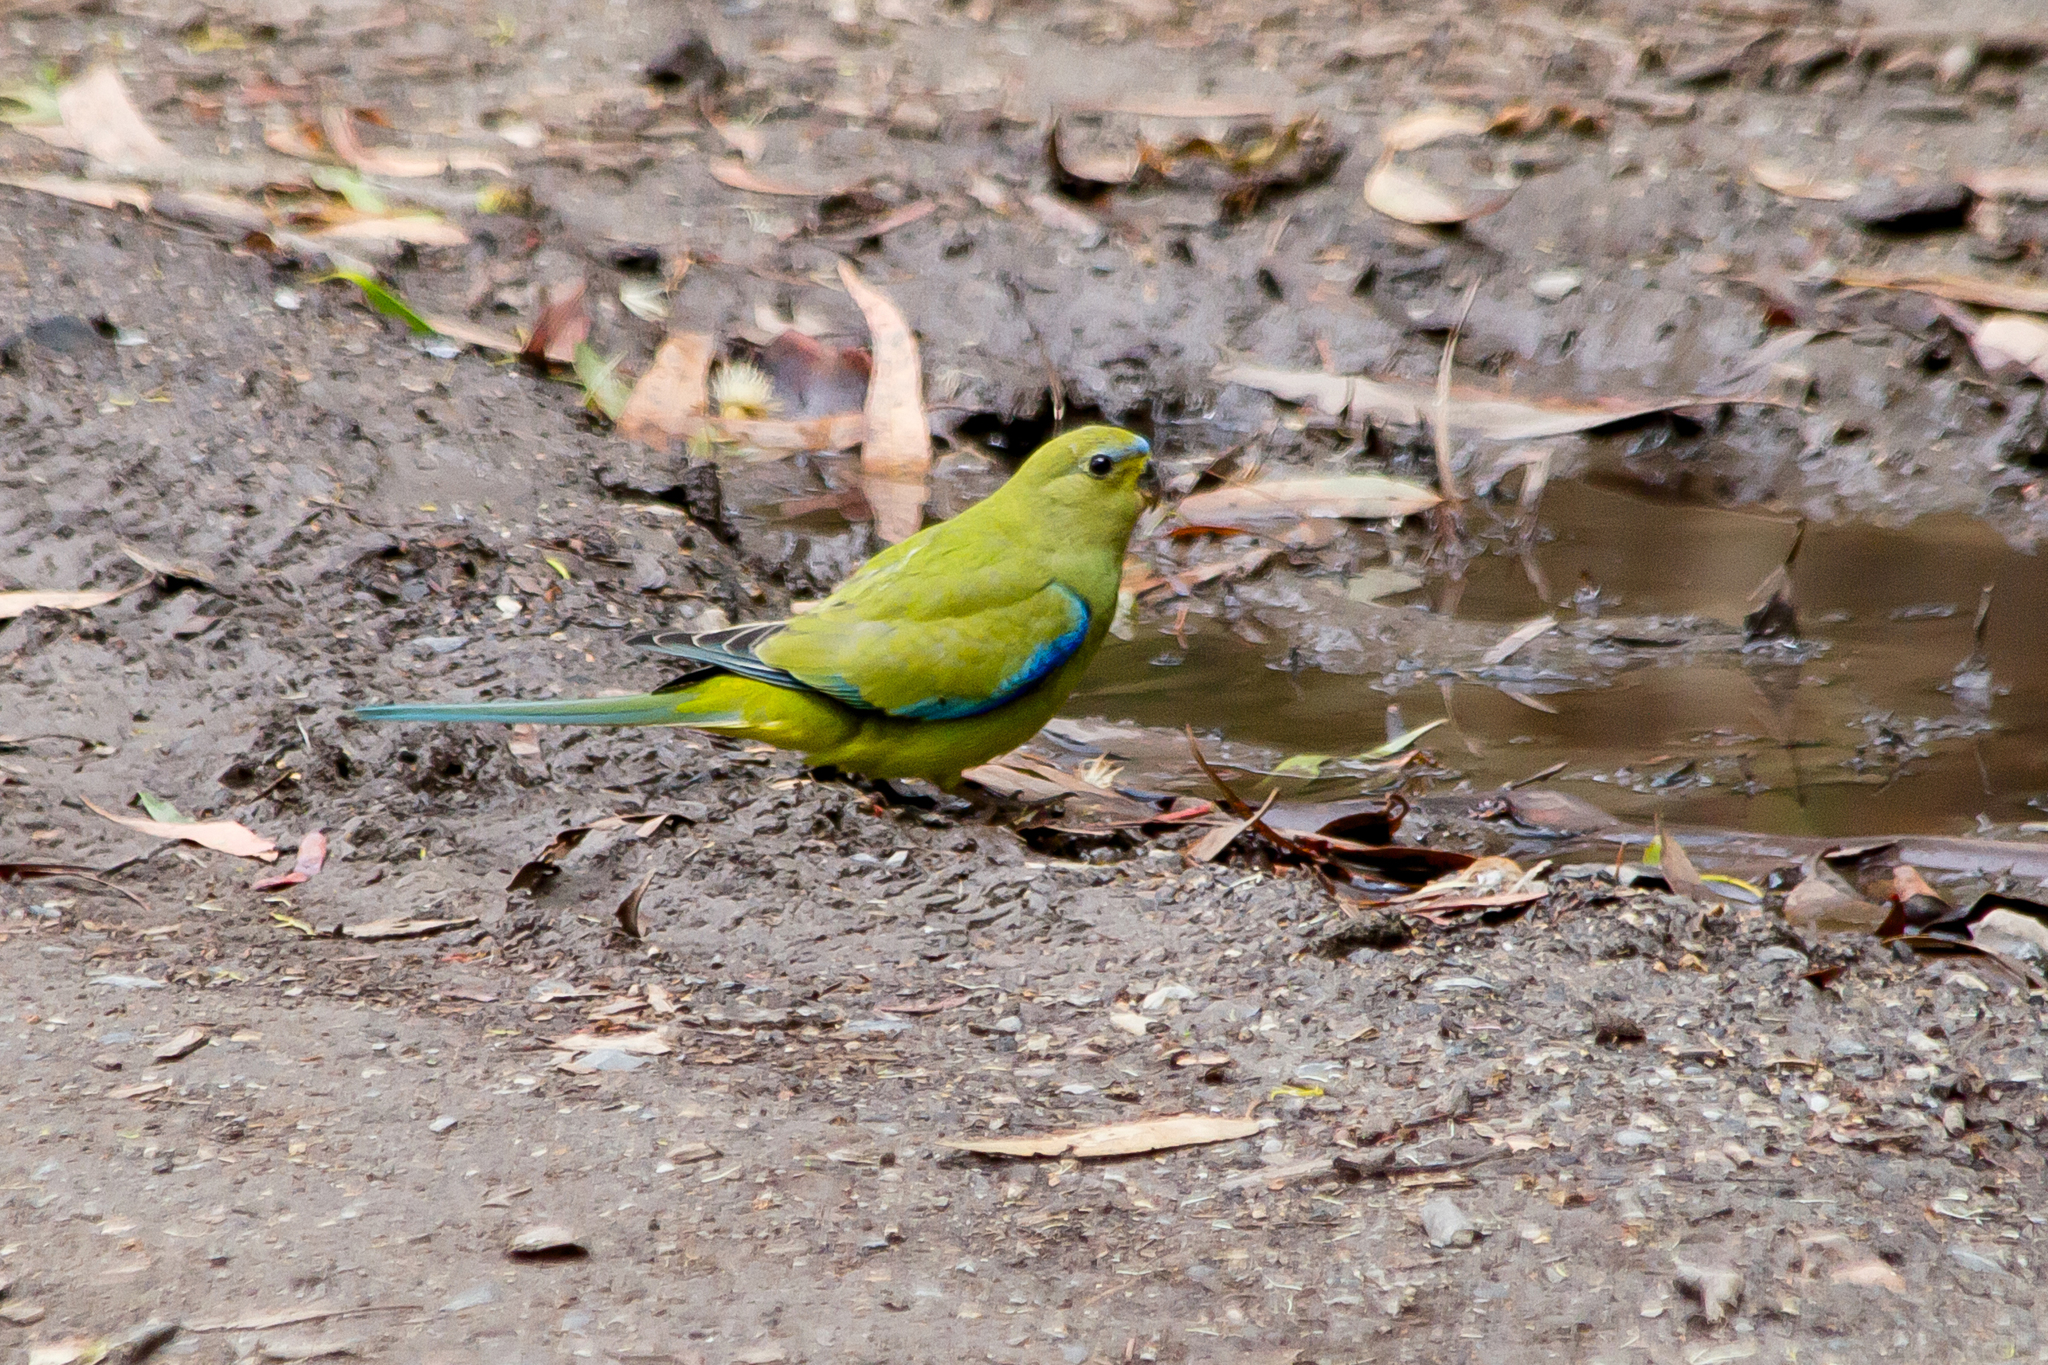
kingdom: Animalia
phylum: Chordata
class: Aves
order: Psittaciformes
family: Psittacidae
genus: Neophema
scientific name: Neophema elegans
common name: Elegant parrot
